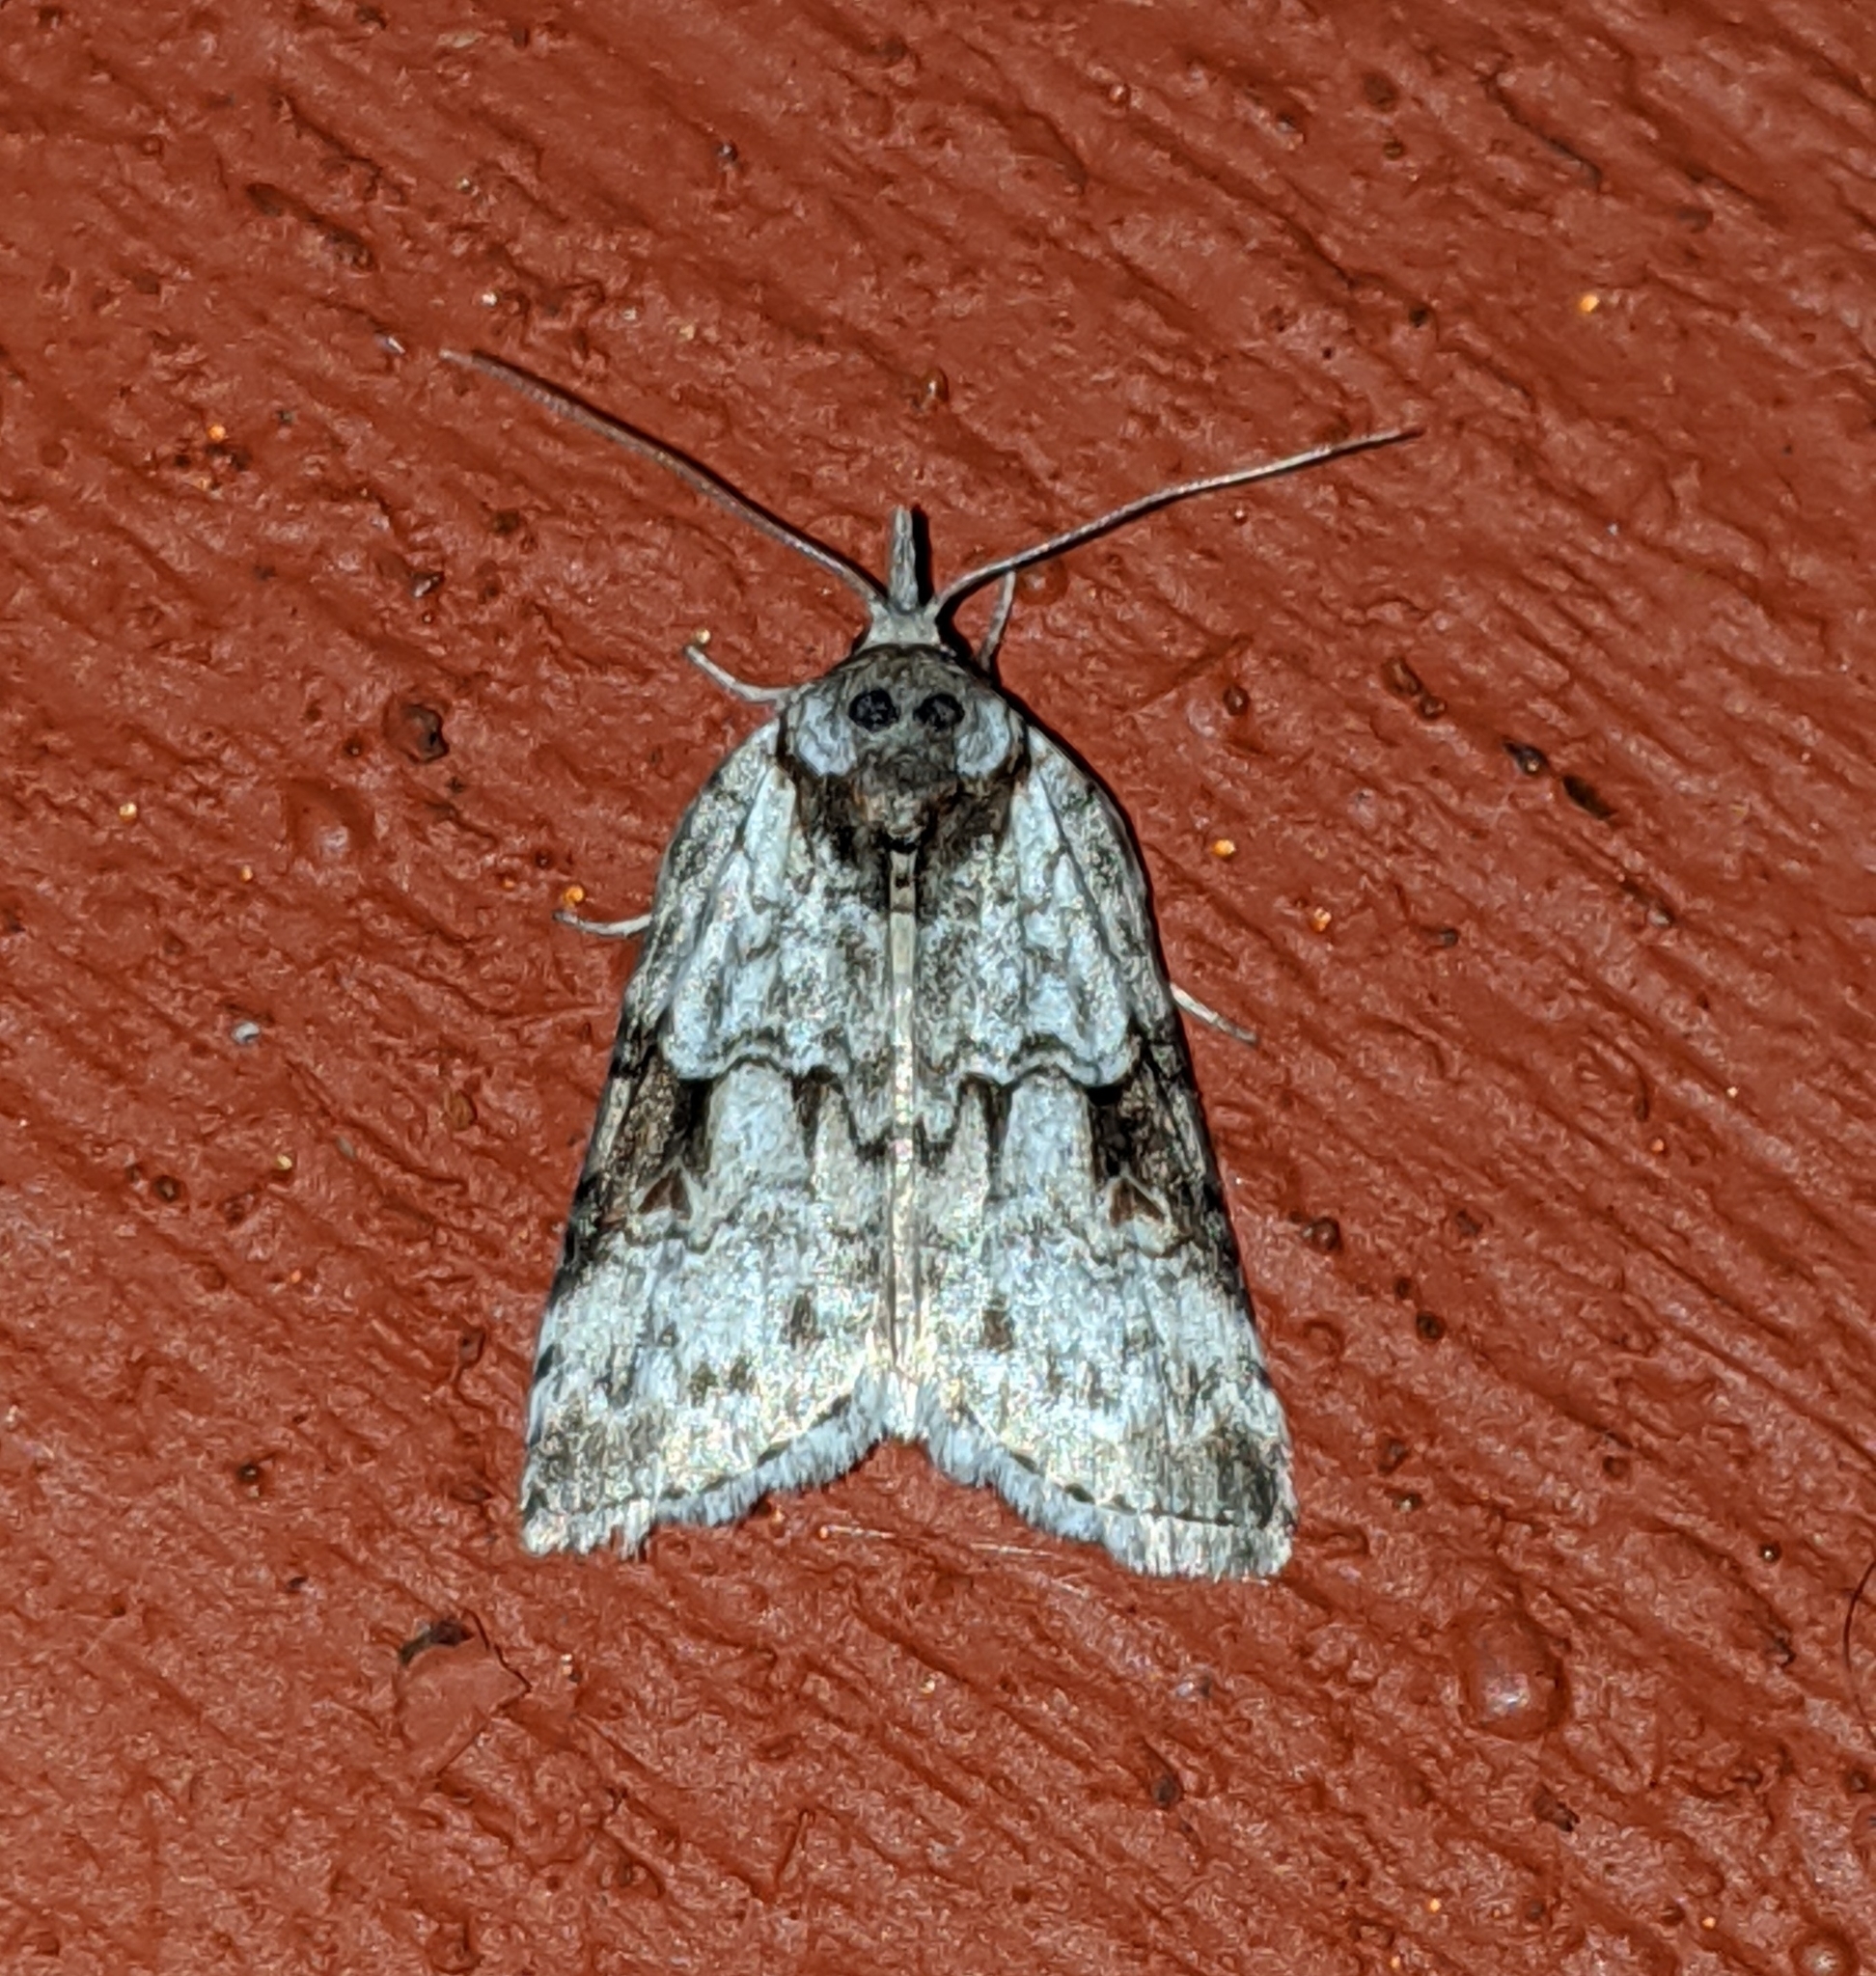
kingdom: Animalia
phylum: Arthropoda
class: Insecta
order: Lepidoptera
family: Nolidae
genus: Nycteola
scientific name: Nycteola frigidana
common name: Frigid owlet
